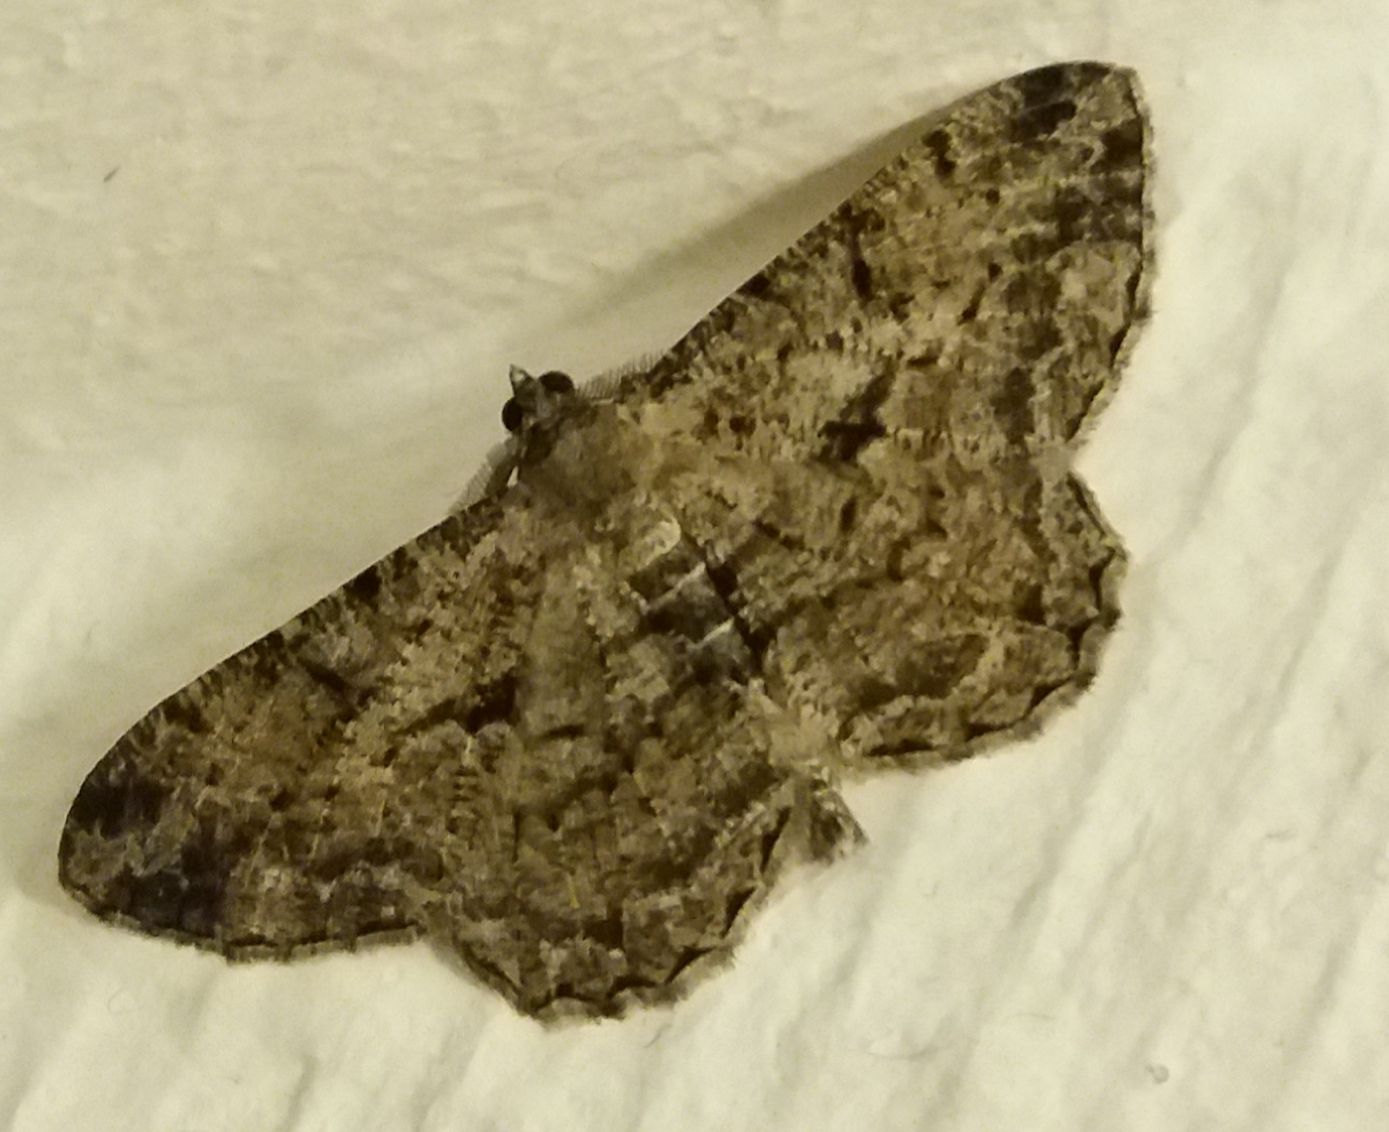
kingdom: Animalia
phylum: Arthropoda
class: Insecta
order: Lepidoptera
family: Geometridae
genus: Peribatodes
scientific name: Peribatodes rhomboidaria
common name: Willow beauty
